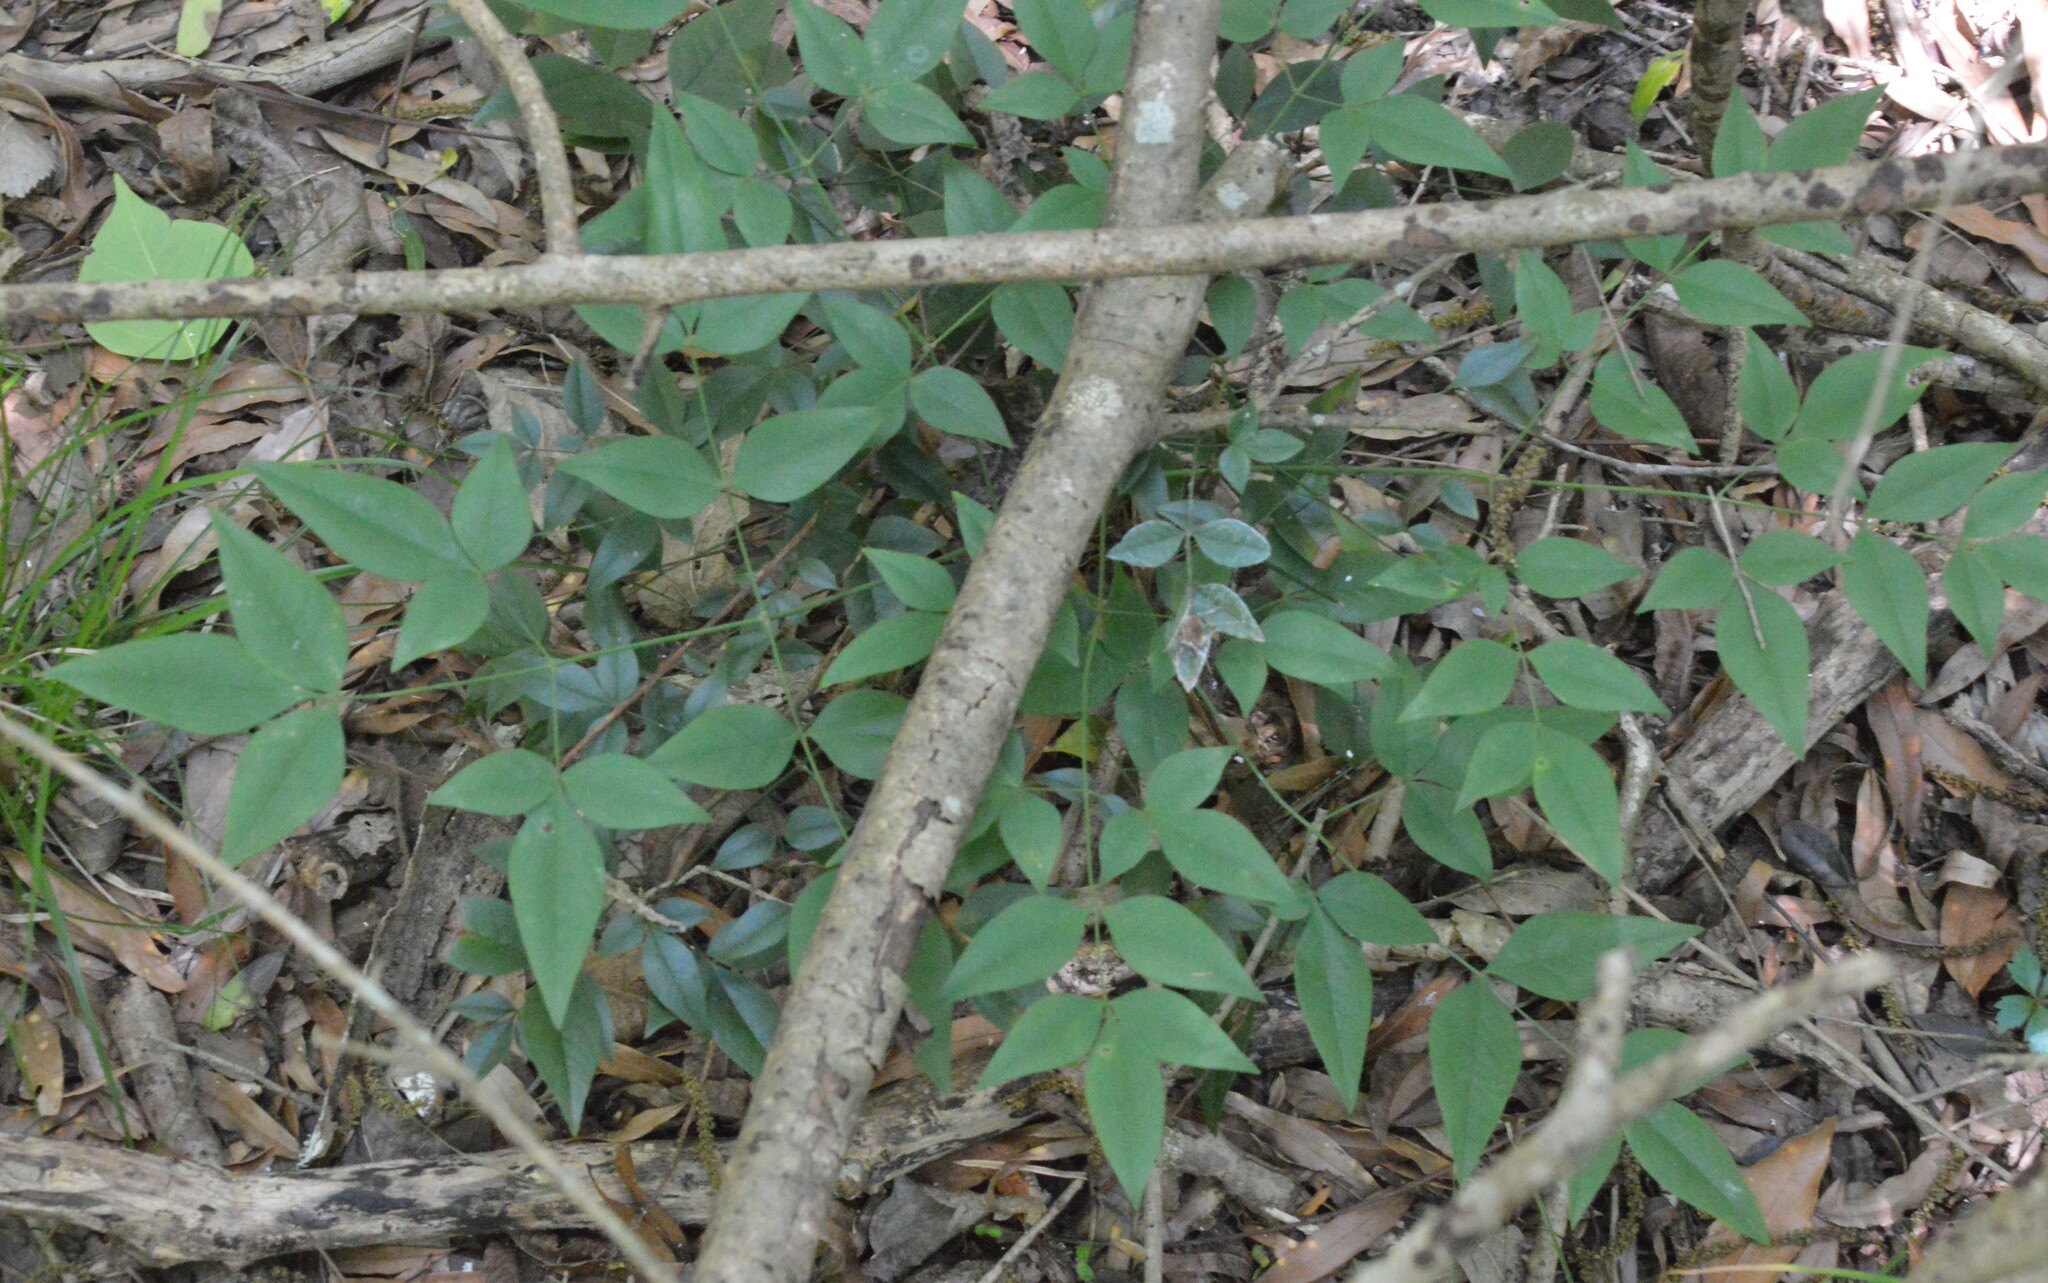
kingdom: Plantae
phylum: Tracheophyta
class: Magnoliopsida
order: Ranunculales
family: Berberidaceae
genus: Nandina
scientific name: Nandina domestica
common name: Sacred bamboo
